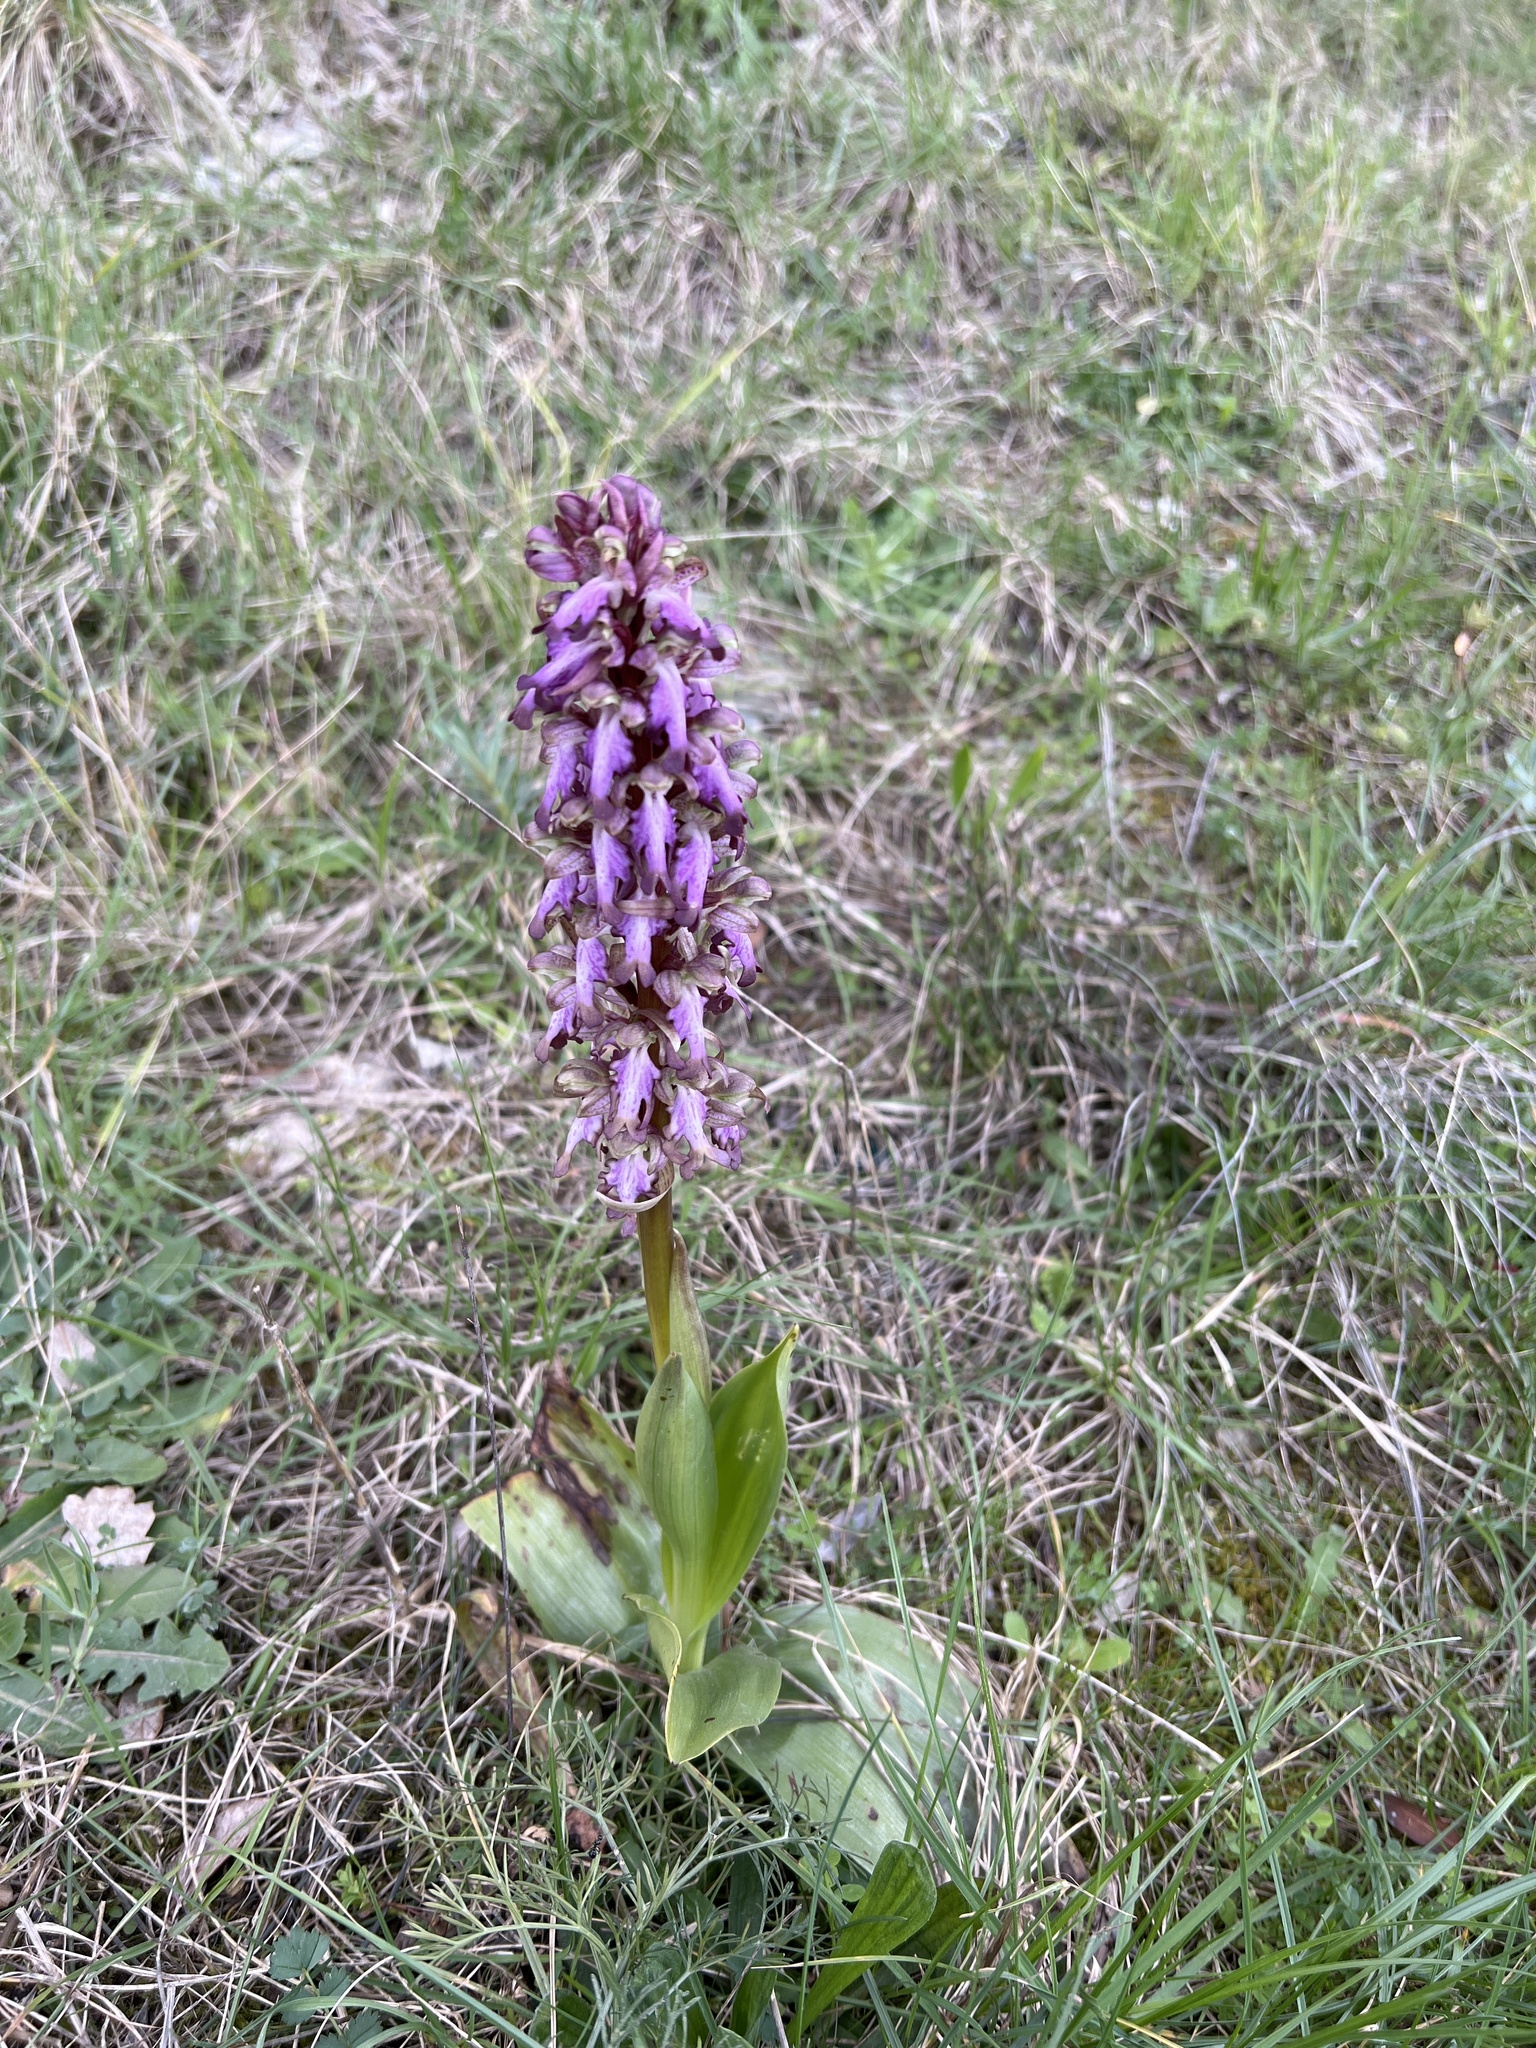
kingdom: Plantae
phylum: Tracheophyta
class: Liliopsida
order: Asparagales
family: Orchidaceae
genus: Himantoglossum
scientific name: Himantoglossum robertianum
